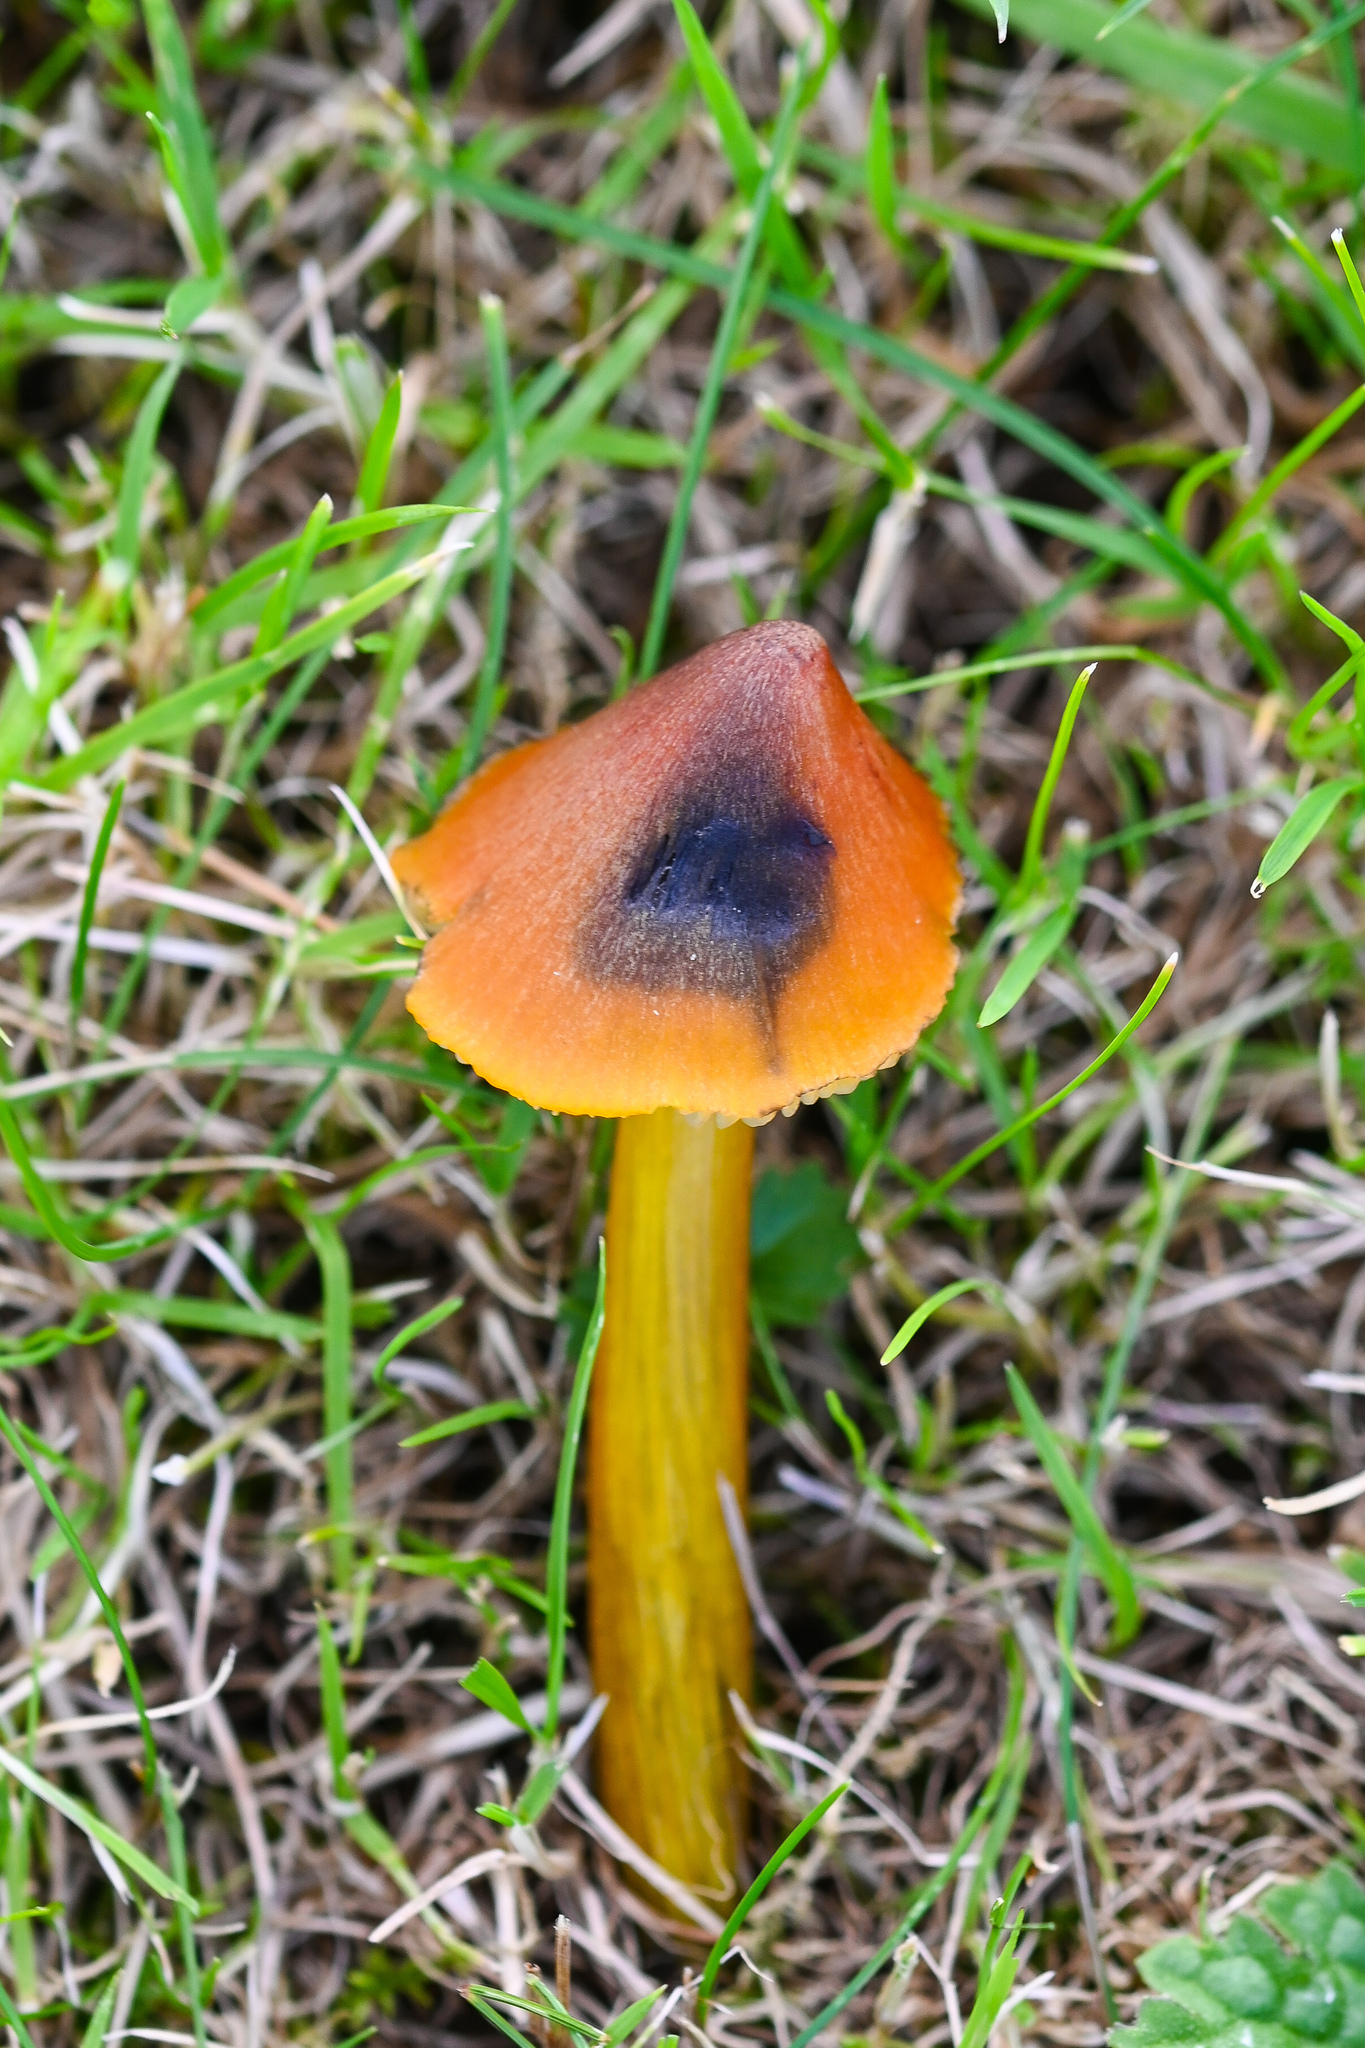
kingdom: Fungi
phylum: Basidiomycota
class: Agaricomycetes
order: Agaricales
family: Hygrophoraceae
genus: Hygrocybe
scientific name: Hygrocybe conica
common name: Blackening wax-cap
